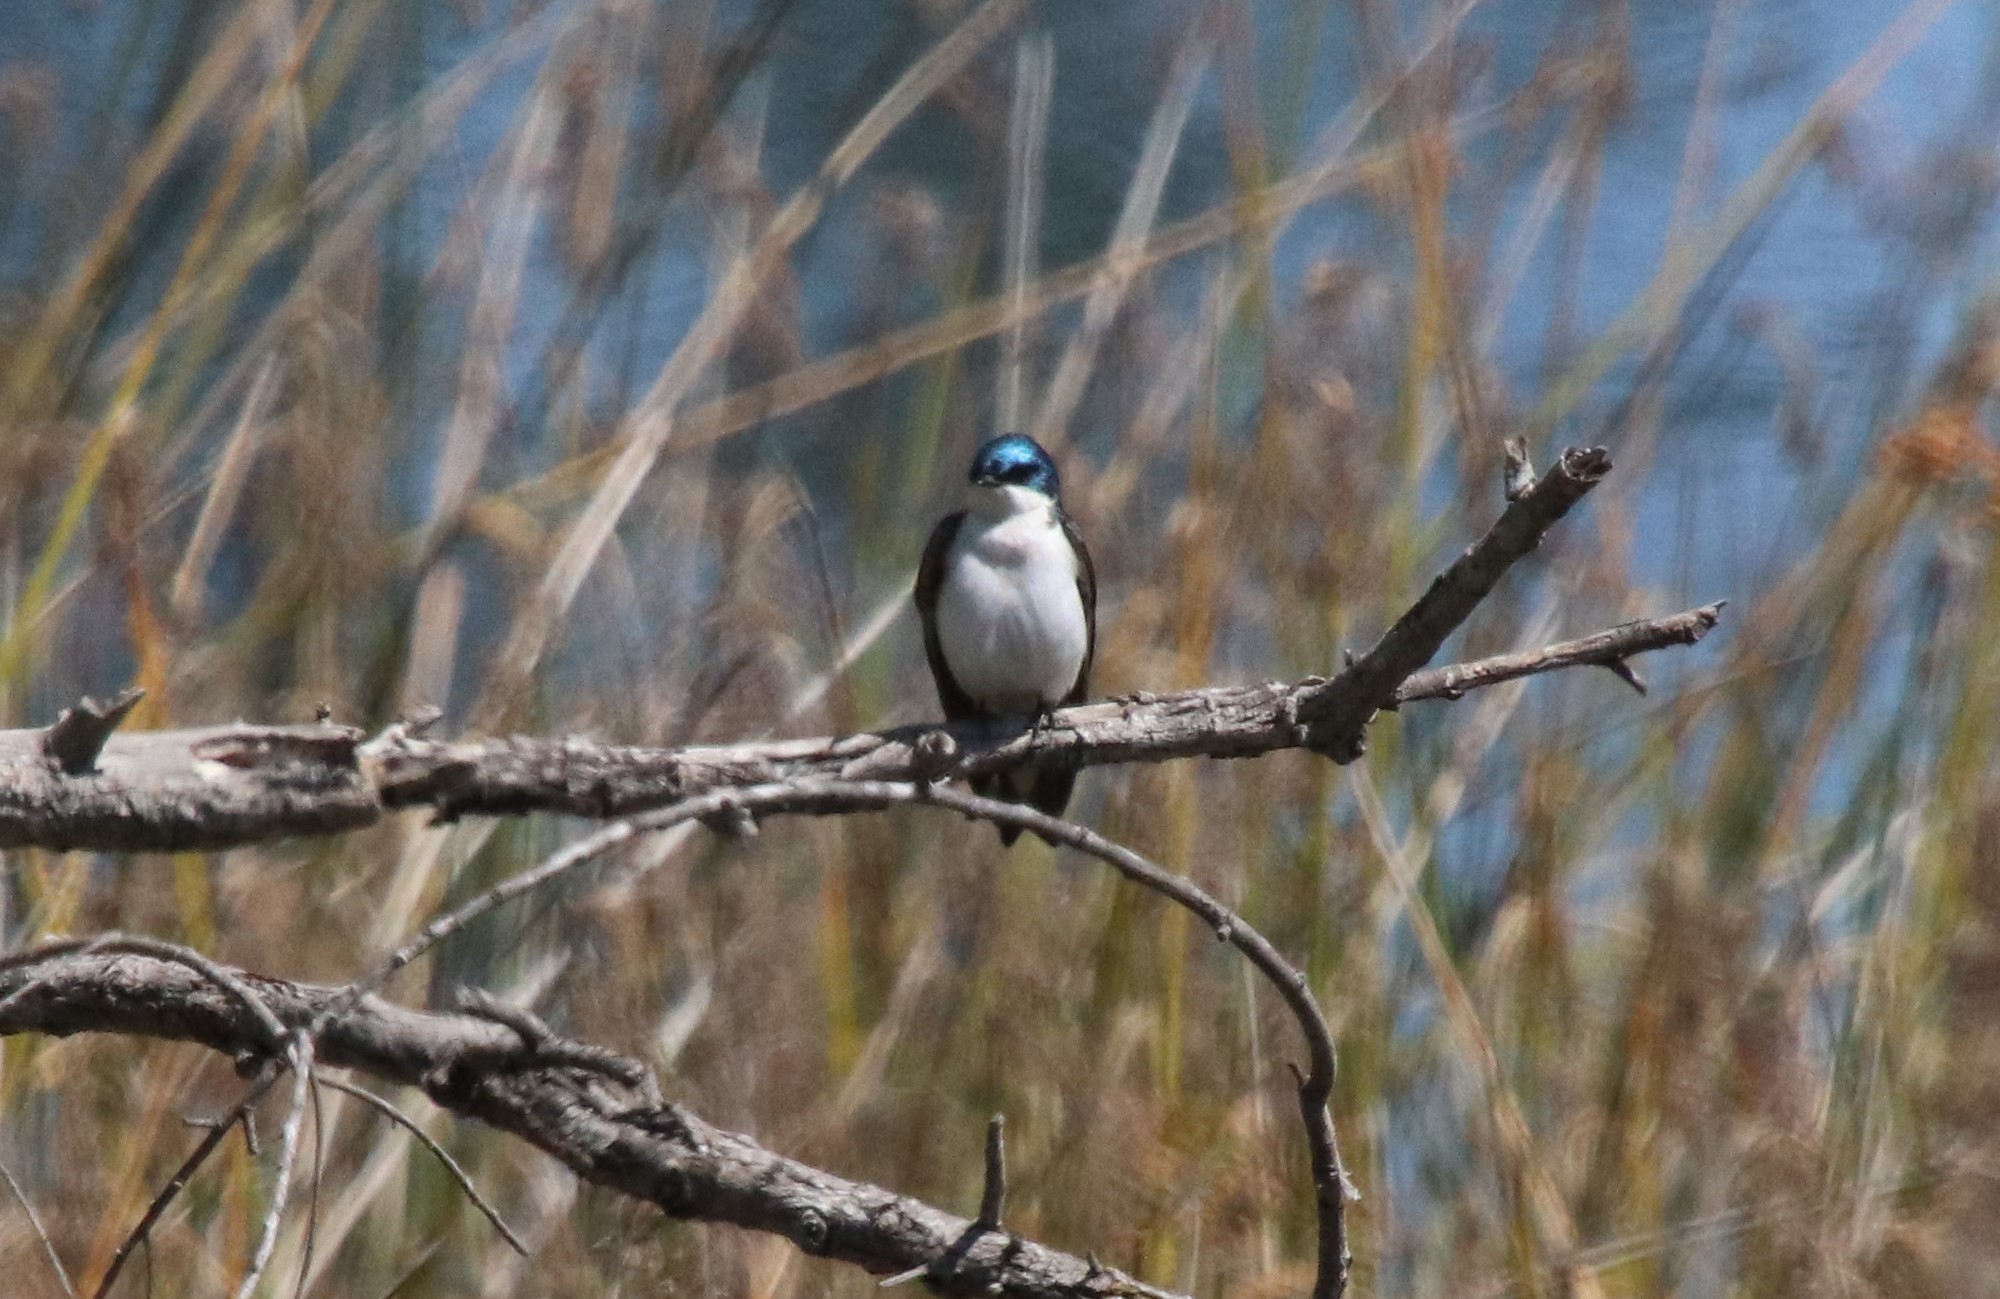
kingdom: Animalia
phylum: Chordata
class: Aves
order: Passeriformes
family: Hirundinidae
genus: Tachycineta
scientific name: Tachycineta bicolor
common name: Tree swallow
